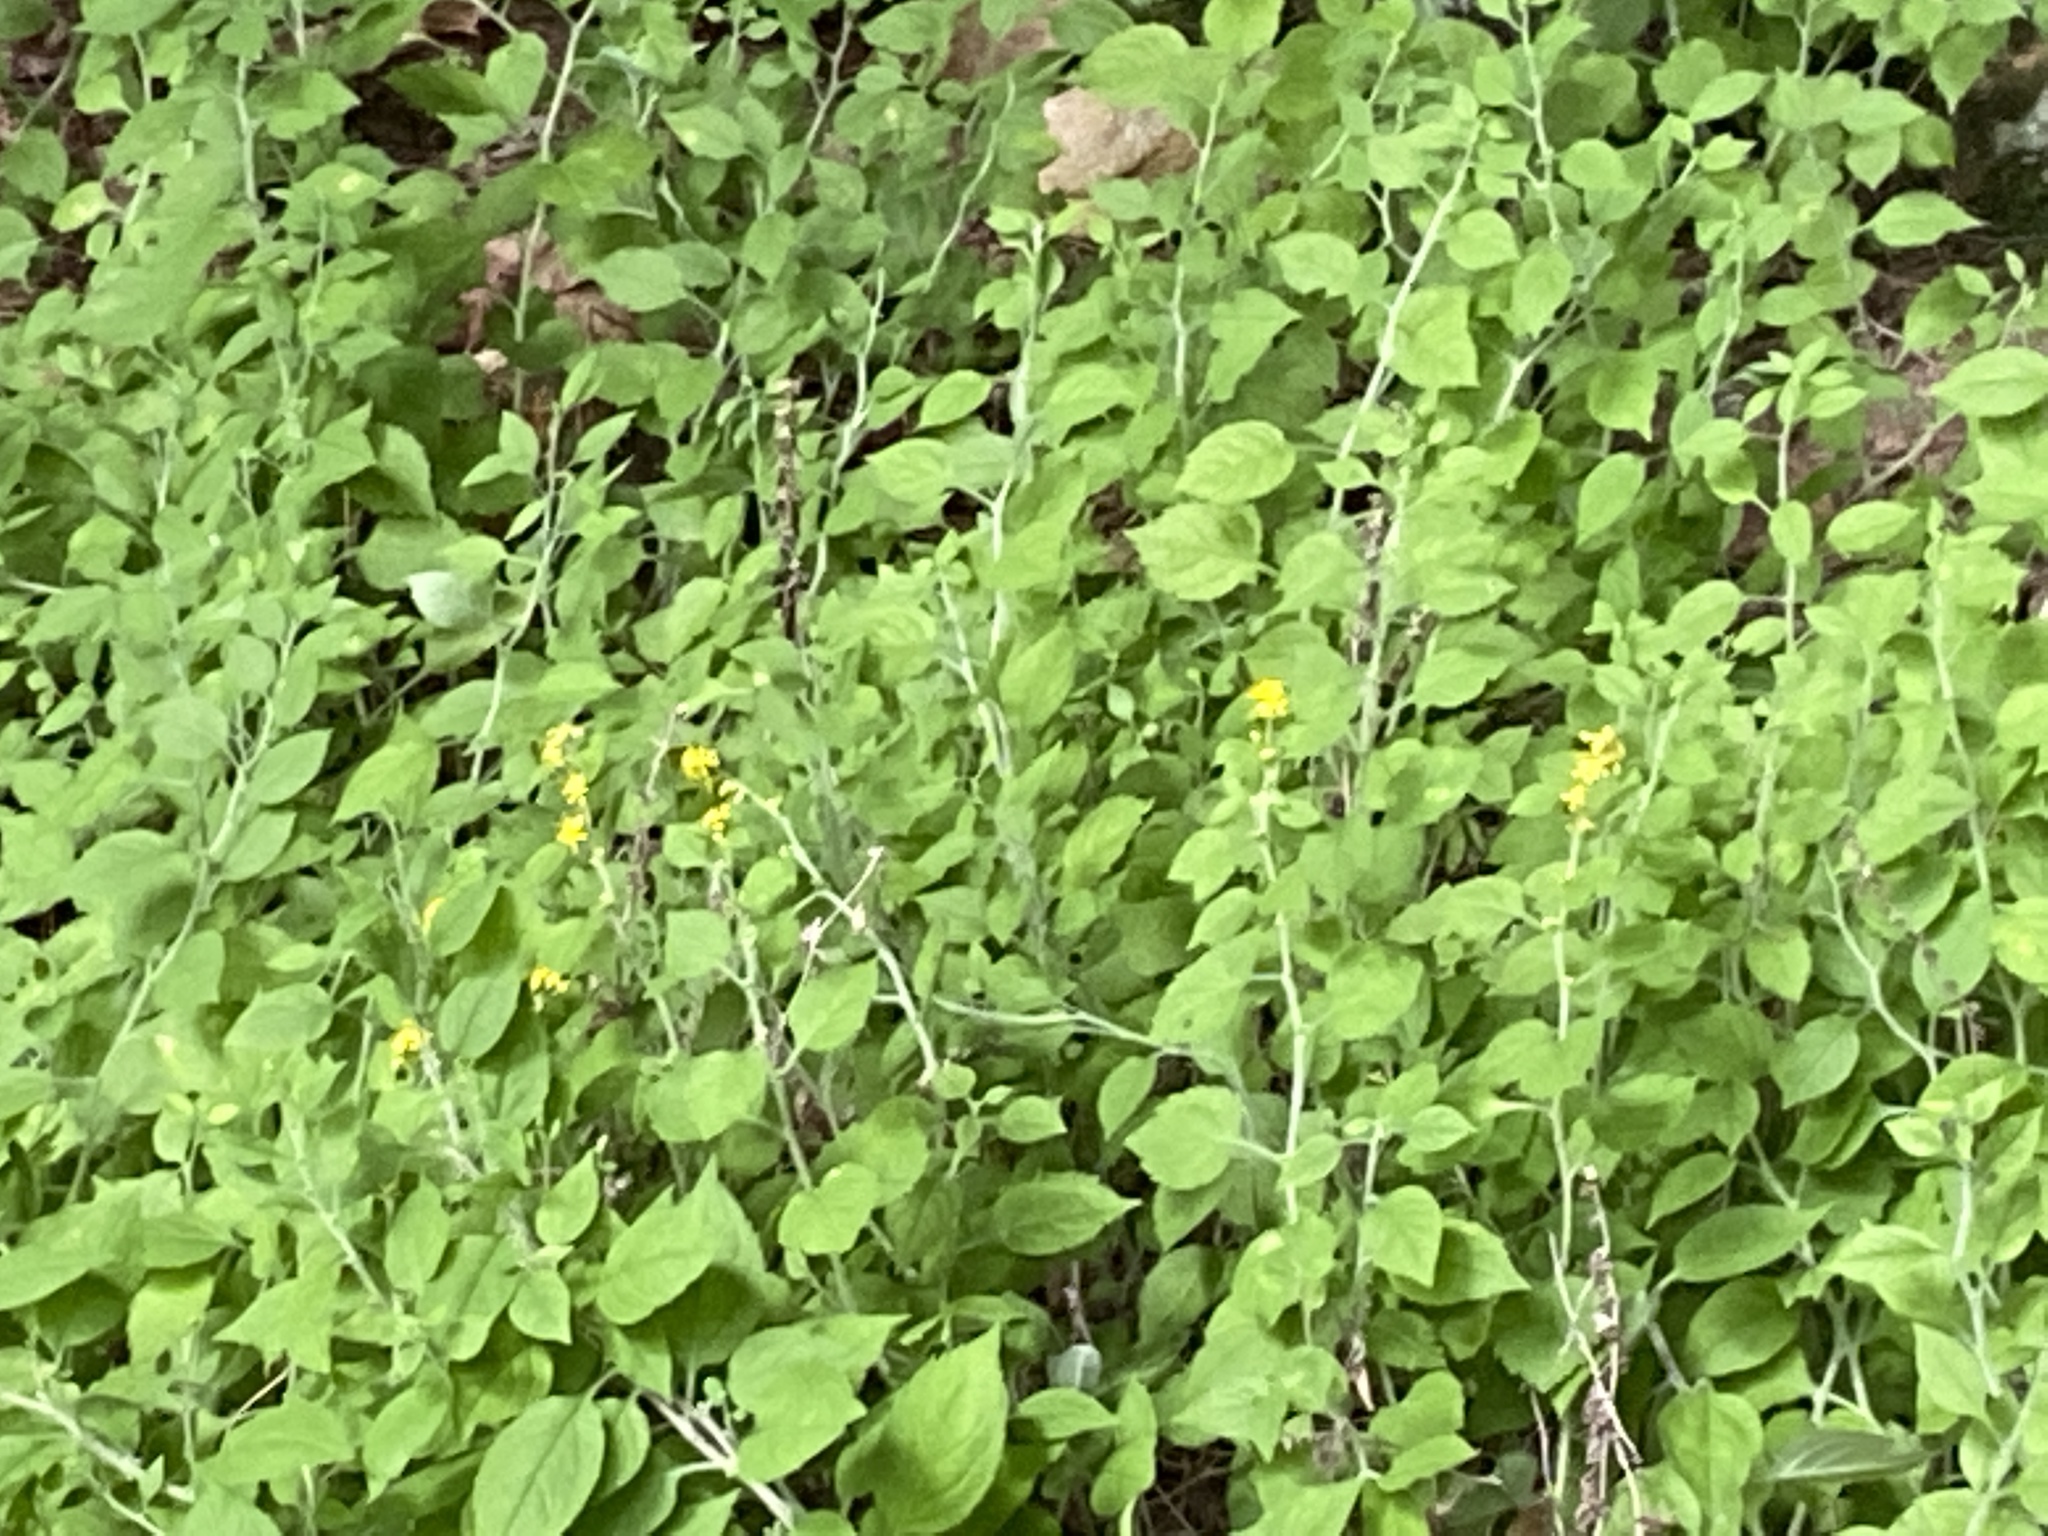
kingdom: Plantae
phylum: Tracheophyta
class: Magnoliopsida
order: Asterales
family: Asteraceae
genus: Solidago
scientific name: Solidago albopilosa
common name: White-hair goldenrod
